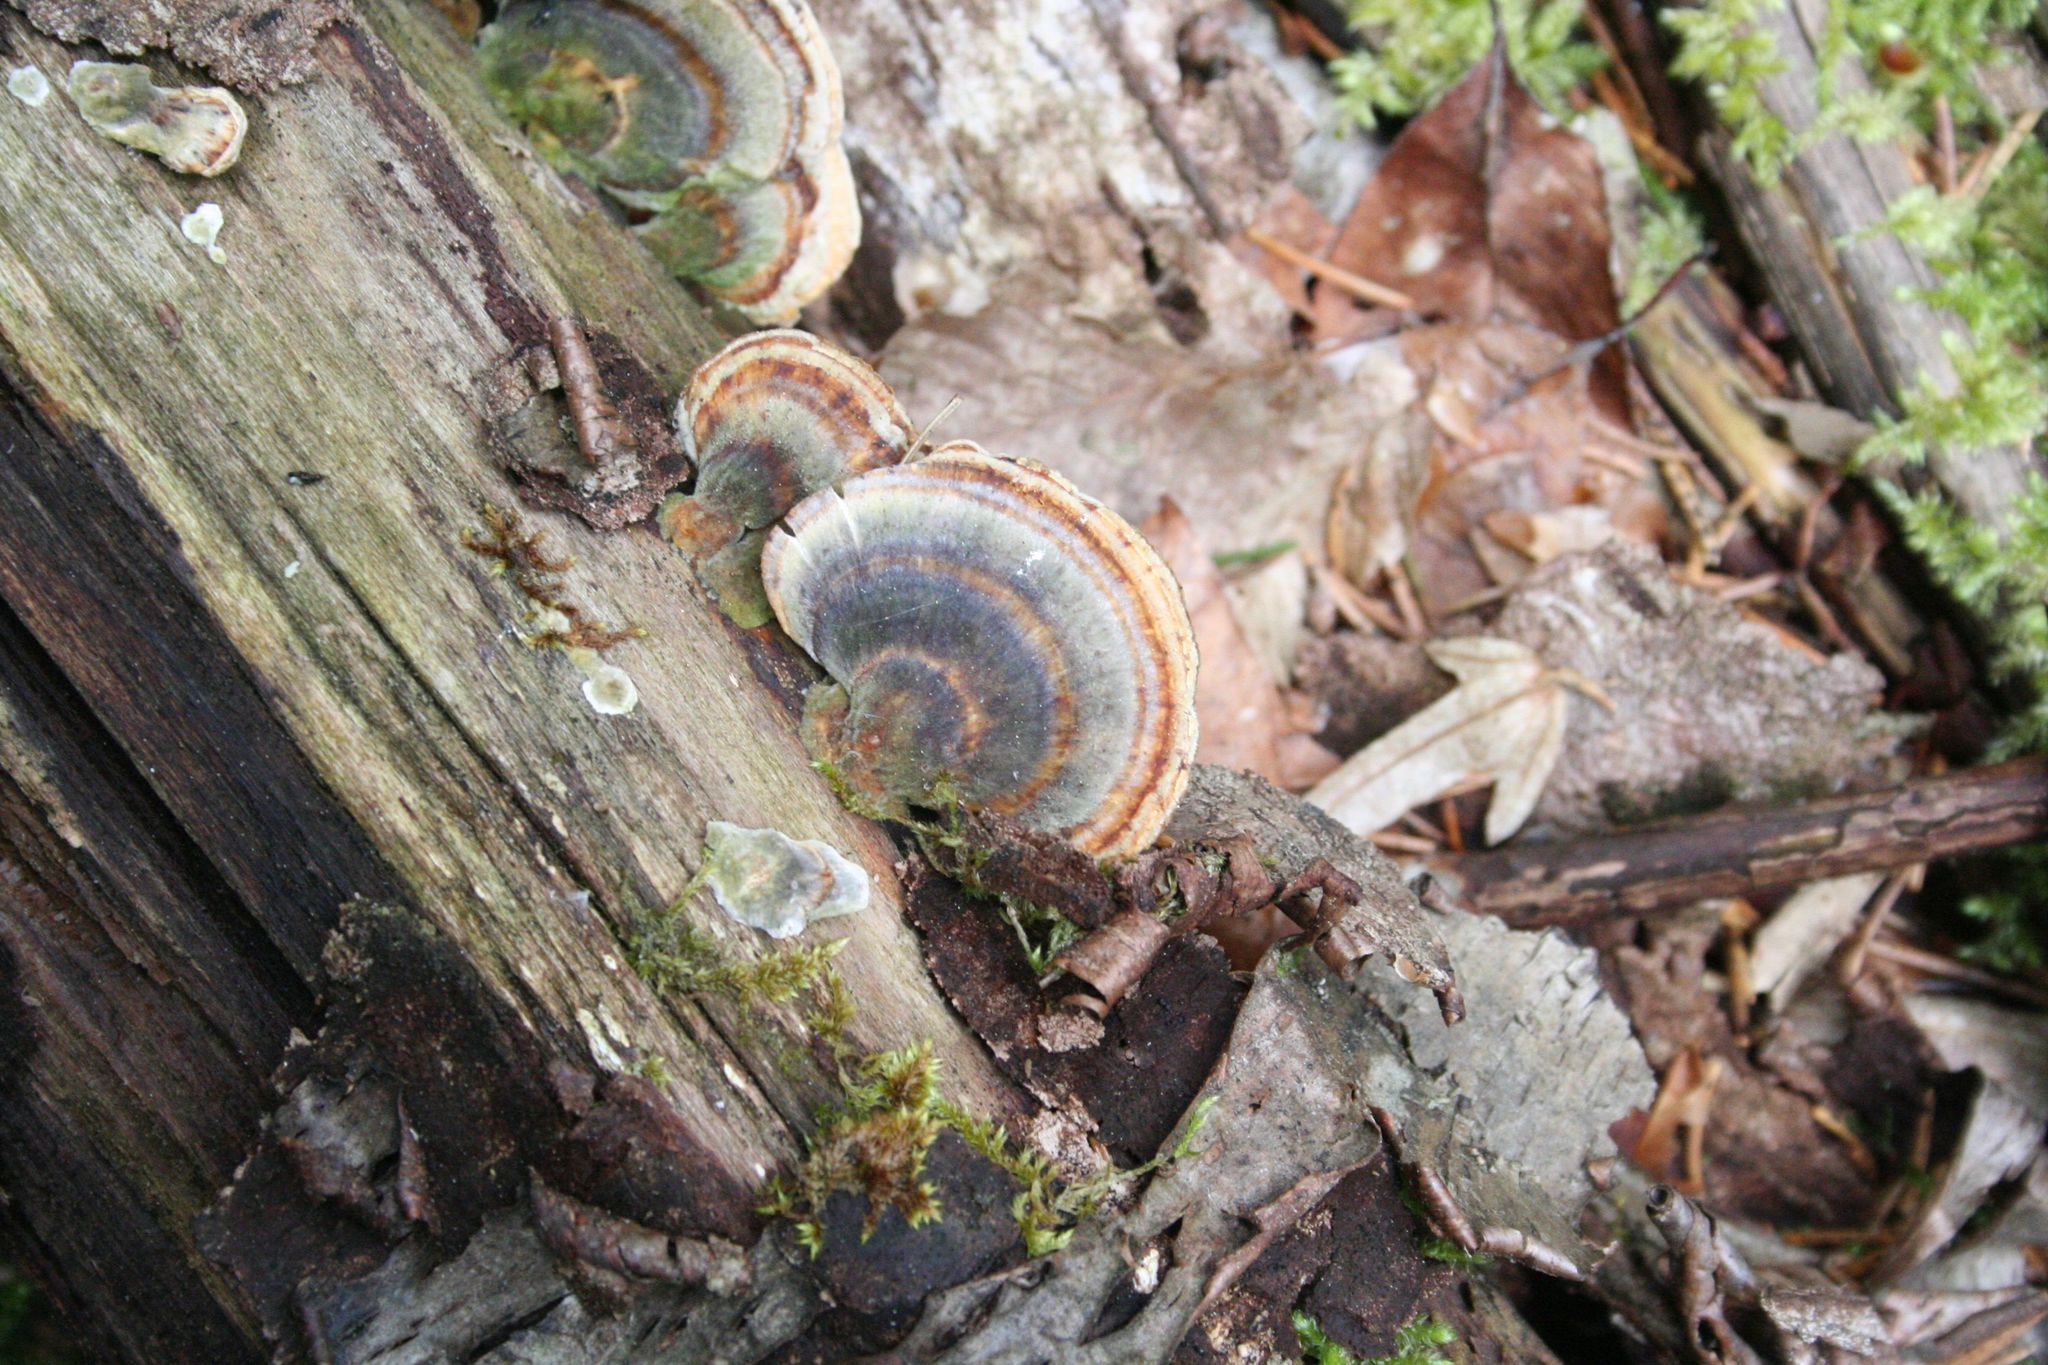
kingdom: Fungi
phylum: Basidiomycota
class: Agaricomycetes
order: Polyporales
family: Polyporaceae
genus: Trametes
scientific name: Trametes versicolor
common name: Turkeytail
